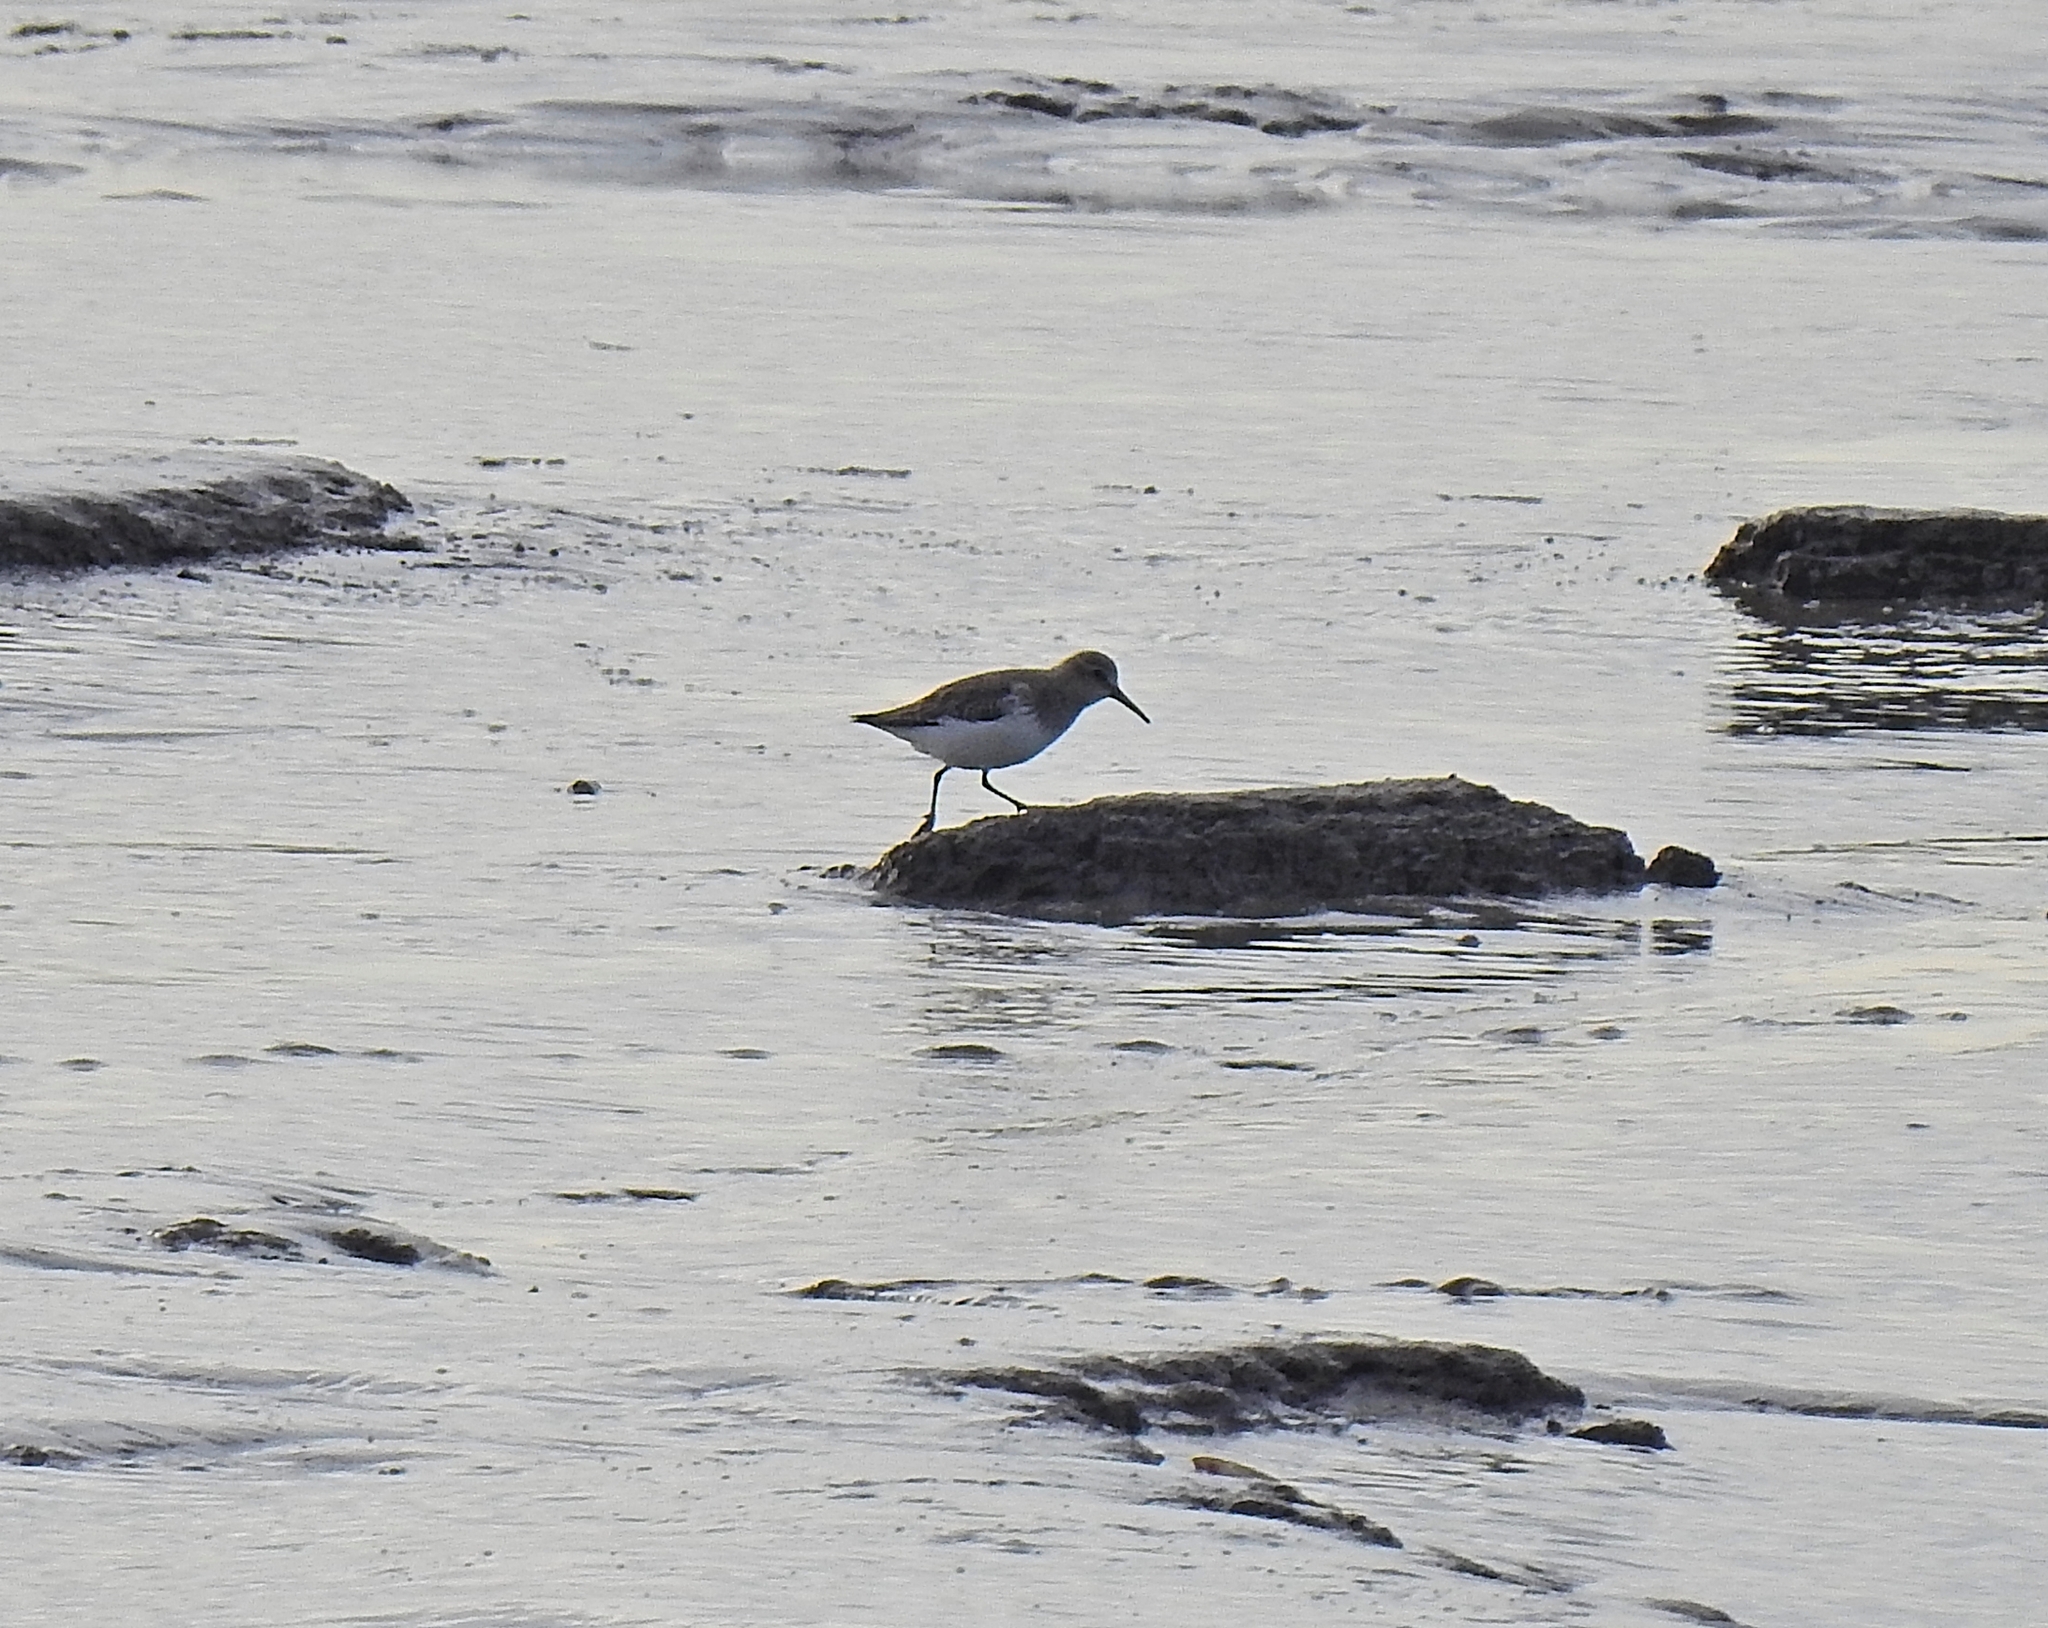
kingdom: Animalia
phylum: Chordata
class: Aves
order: Charadriiformes
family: Scolopacidae
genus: Calidris
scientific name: Calidris alpina
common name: Dunlin
